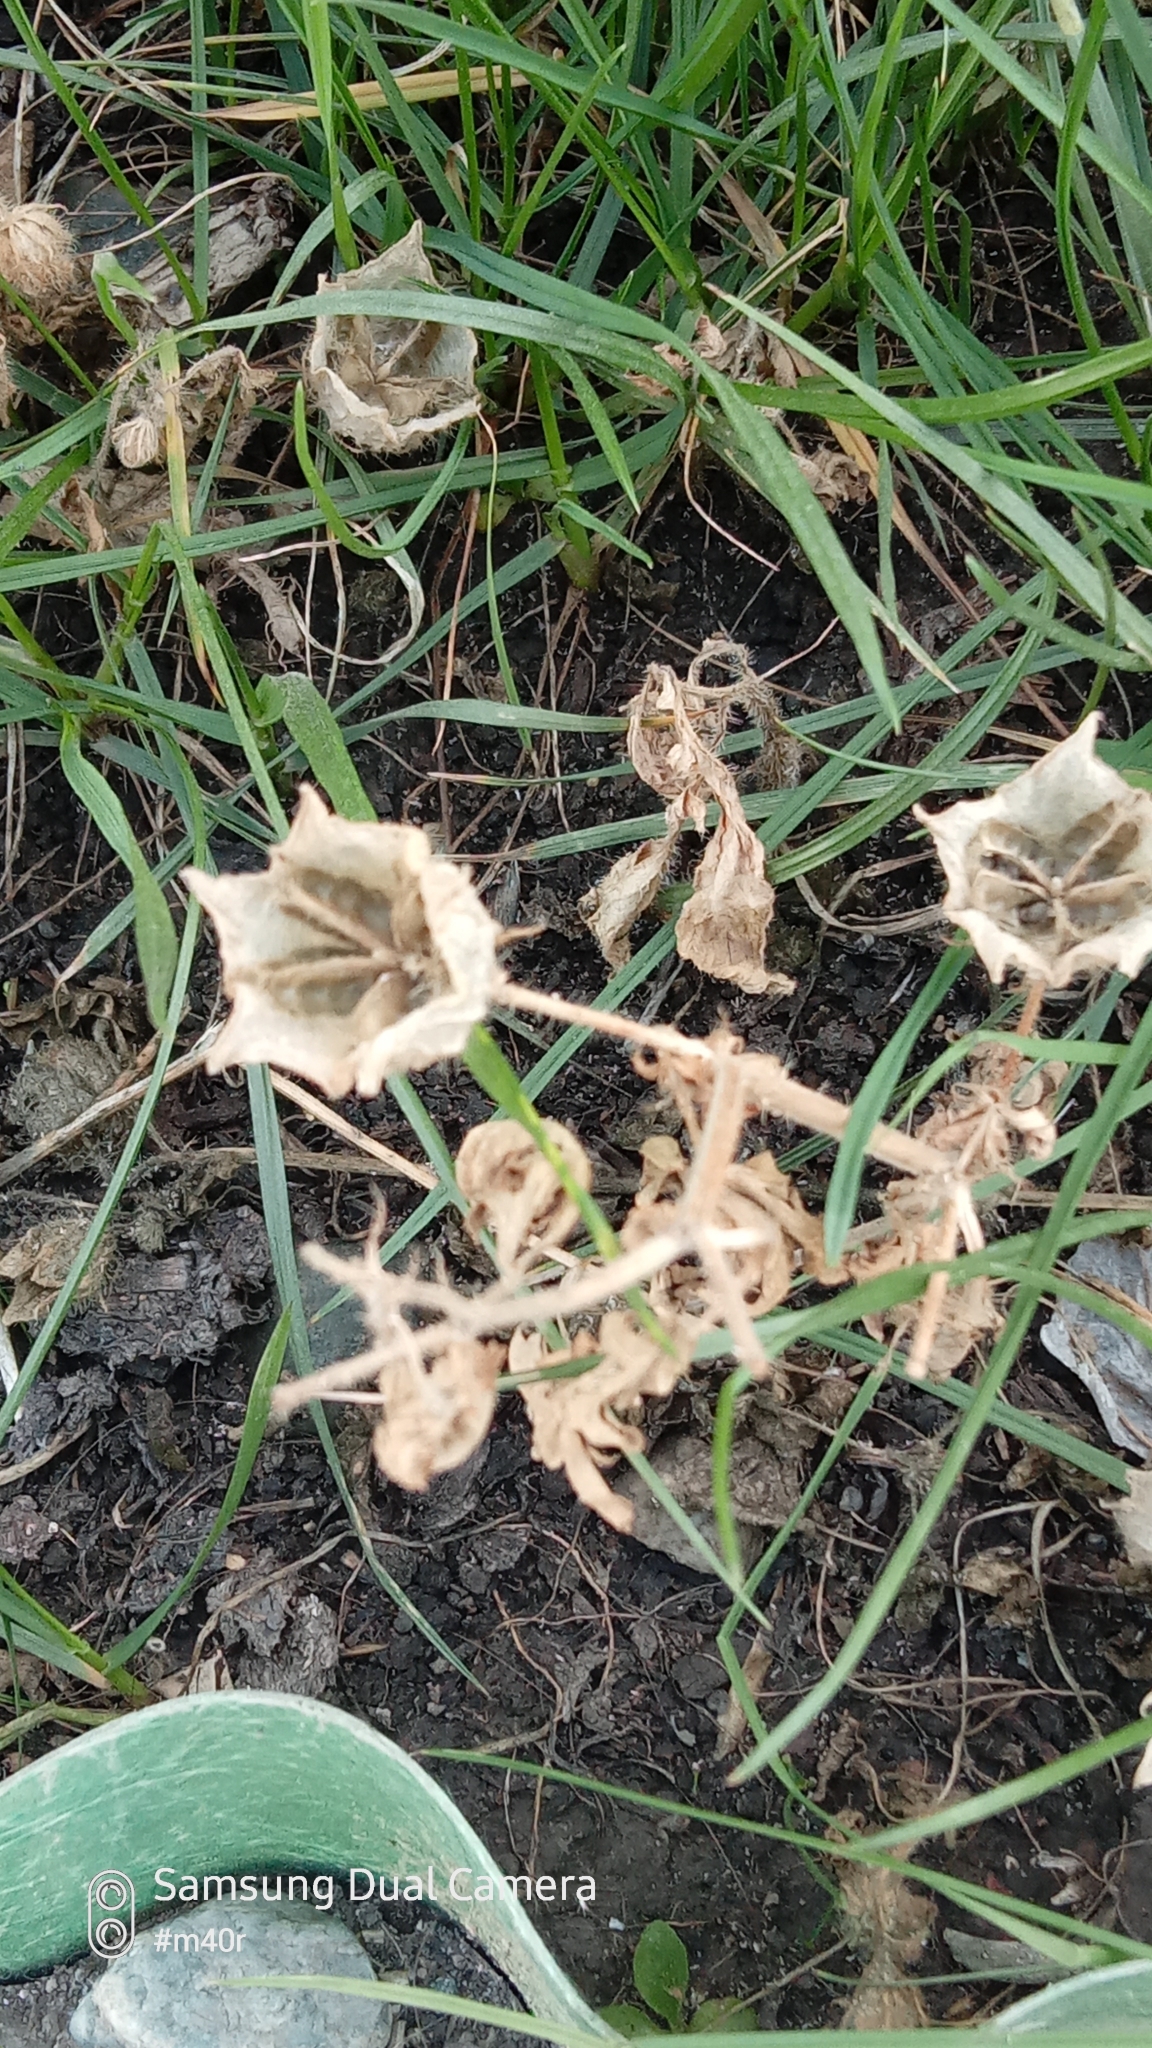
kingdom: Plantae
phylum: Tracheophyta
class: Magnoliopsida
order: Malvales
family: Malvaceae
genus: Hibiscus
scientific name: Hibiscus trionum
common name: Bladder ketmia
